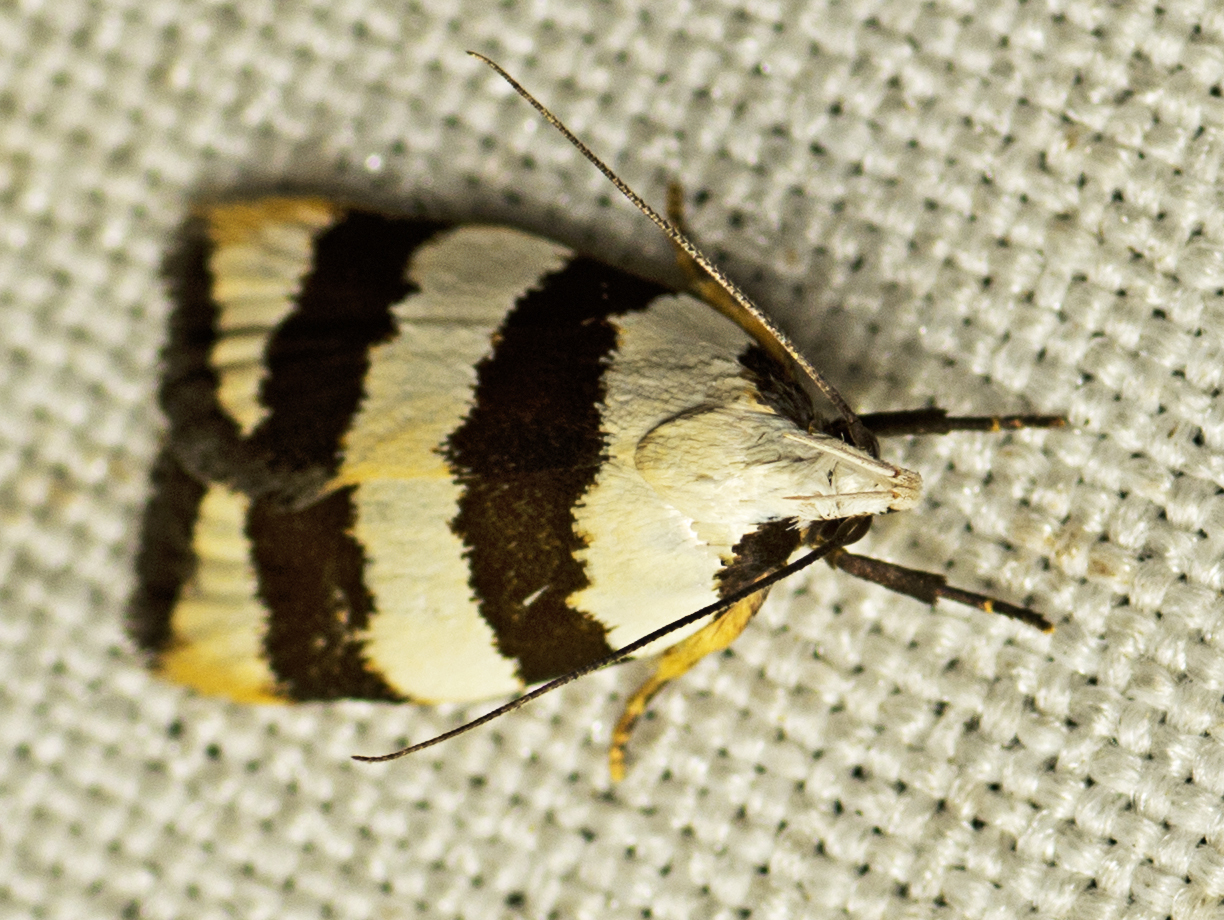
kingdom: Animalia
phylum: Arthropoda
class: Insecta
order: Lepidoptera
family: Oecophoridae
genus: Zonopetala
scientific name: Zonopetala divisella
